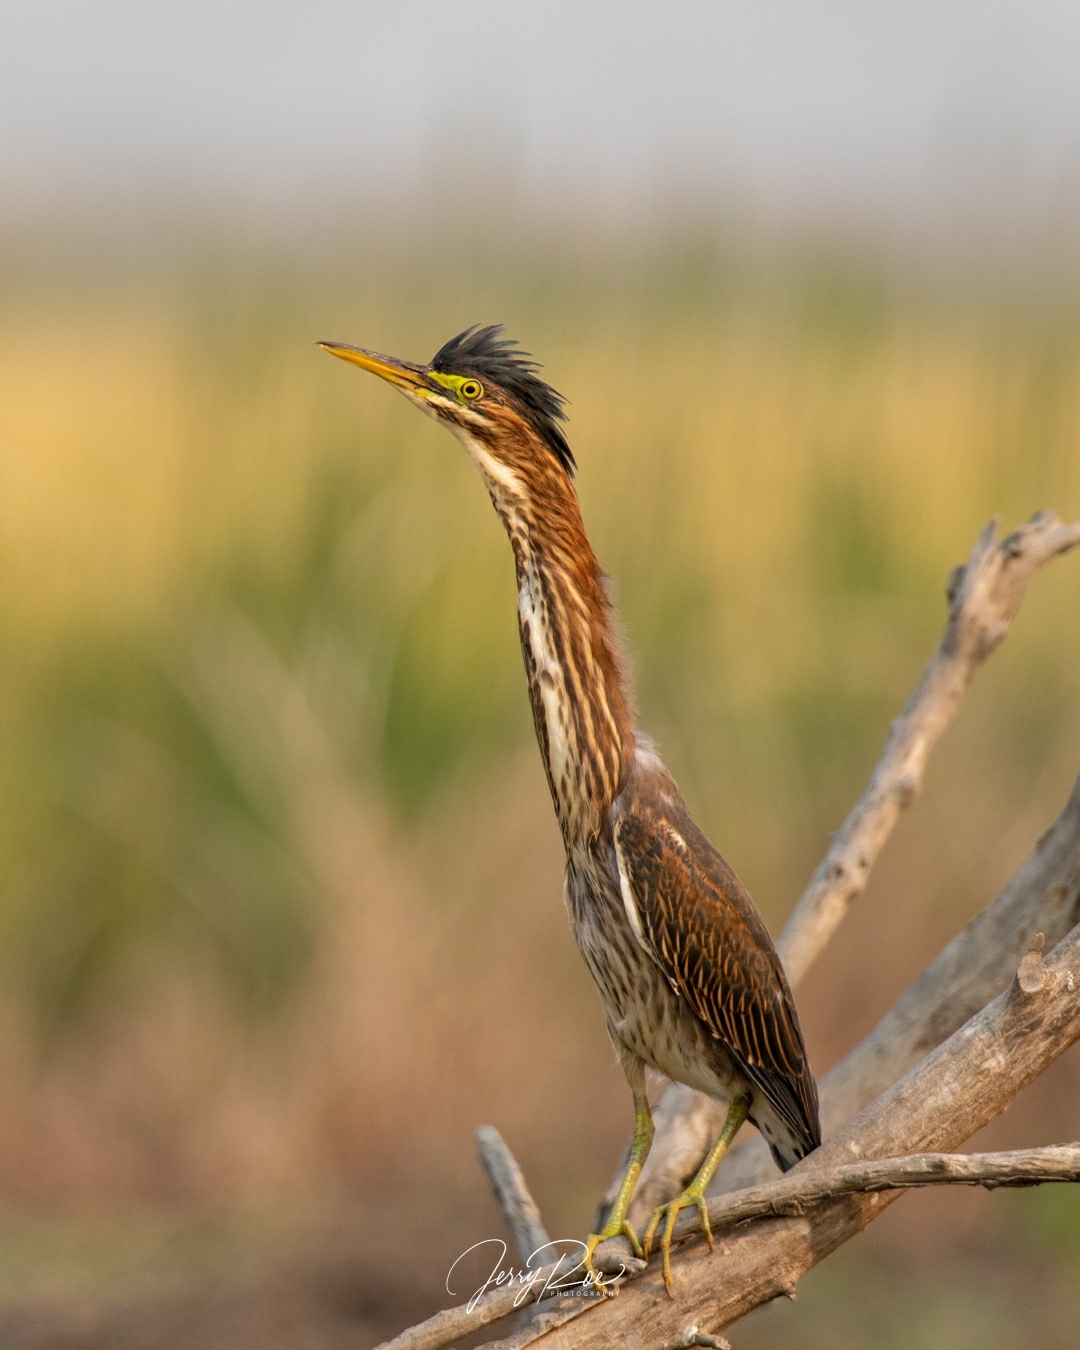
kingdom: Animalia
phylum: Chordata
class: Aves
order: Pelecaniformes
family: Ardeidae
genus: Butorides
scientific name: Butorides virescens
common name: Green heron
